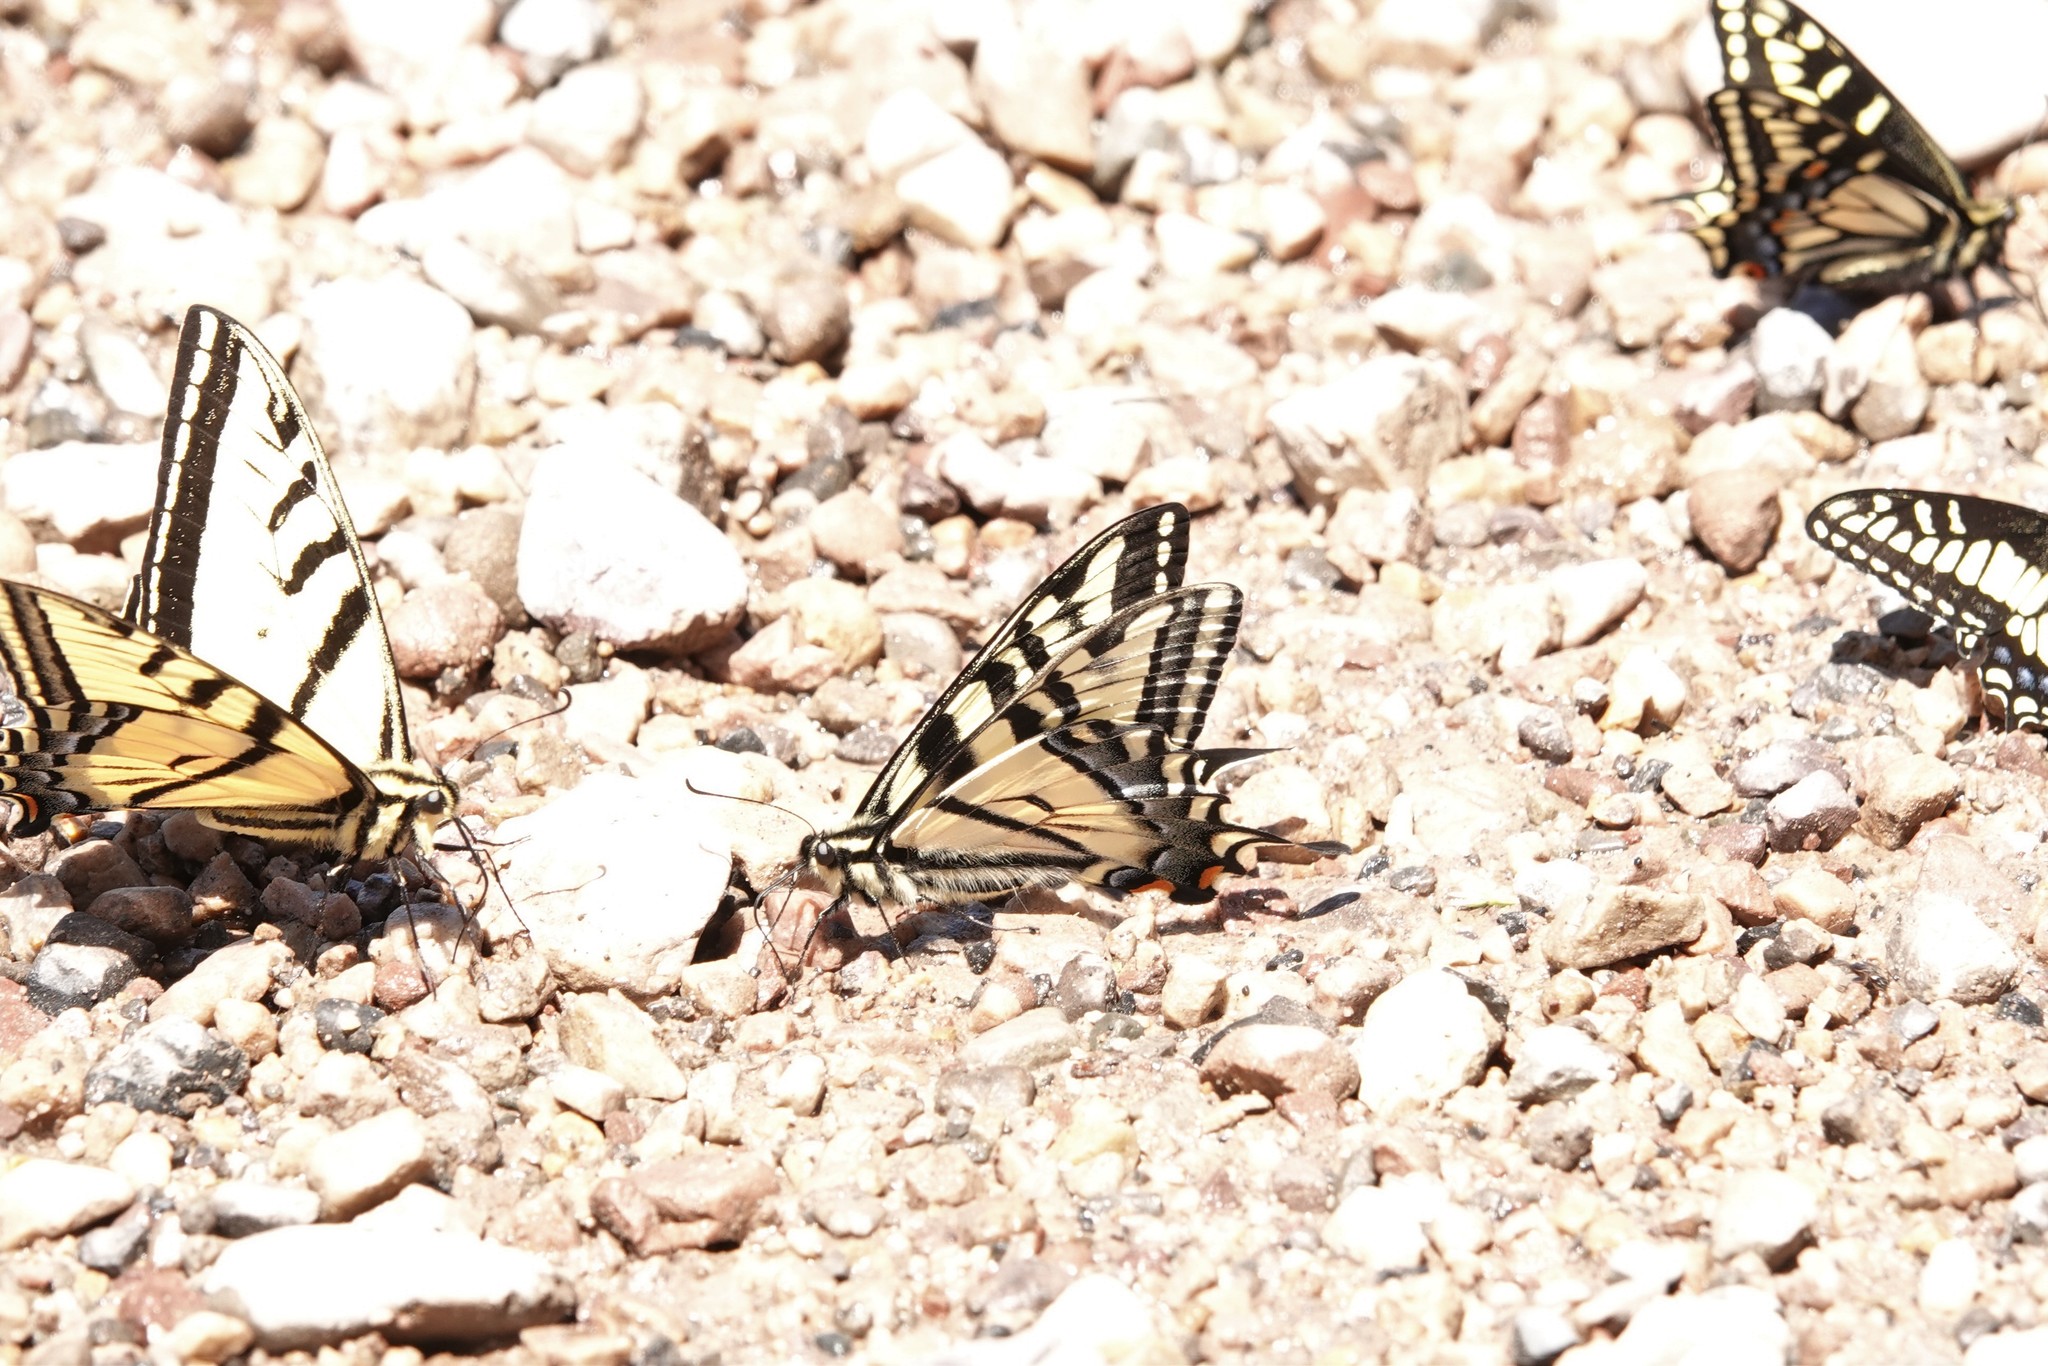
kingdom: Animalia
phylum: Arthropoda
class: Insecta
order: Lepidoptera
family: Papilionidae
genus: Papilio
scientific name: Papilio rutulus
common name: Western tiger swallowtail
